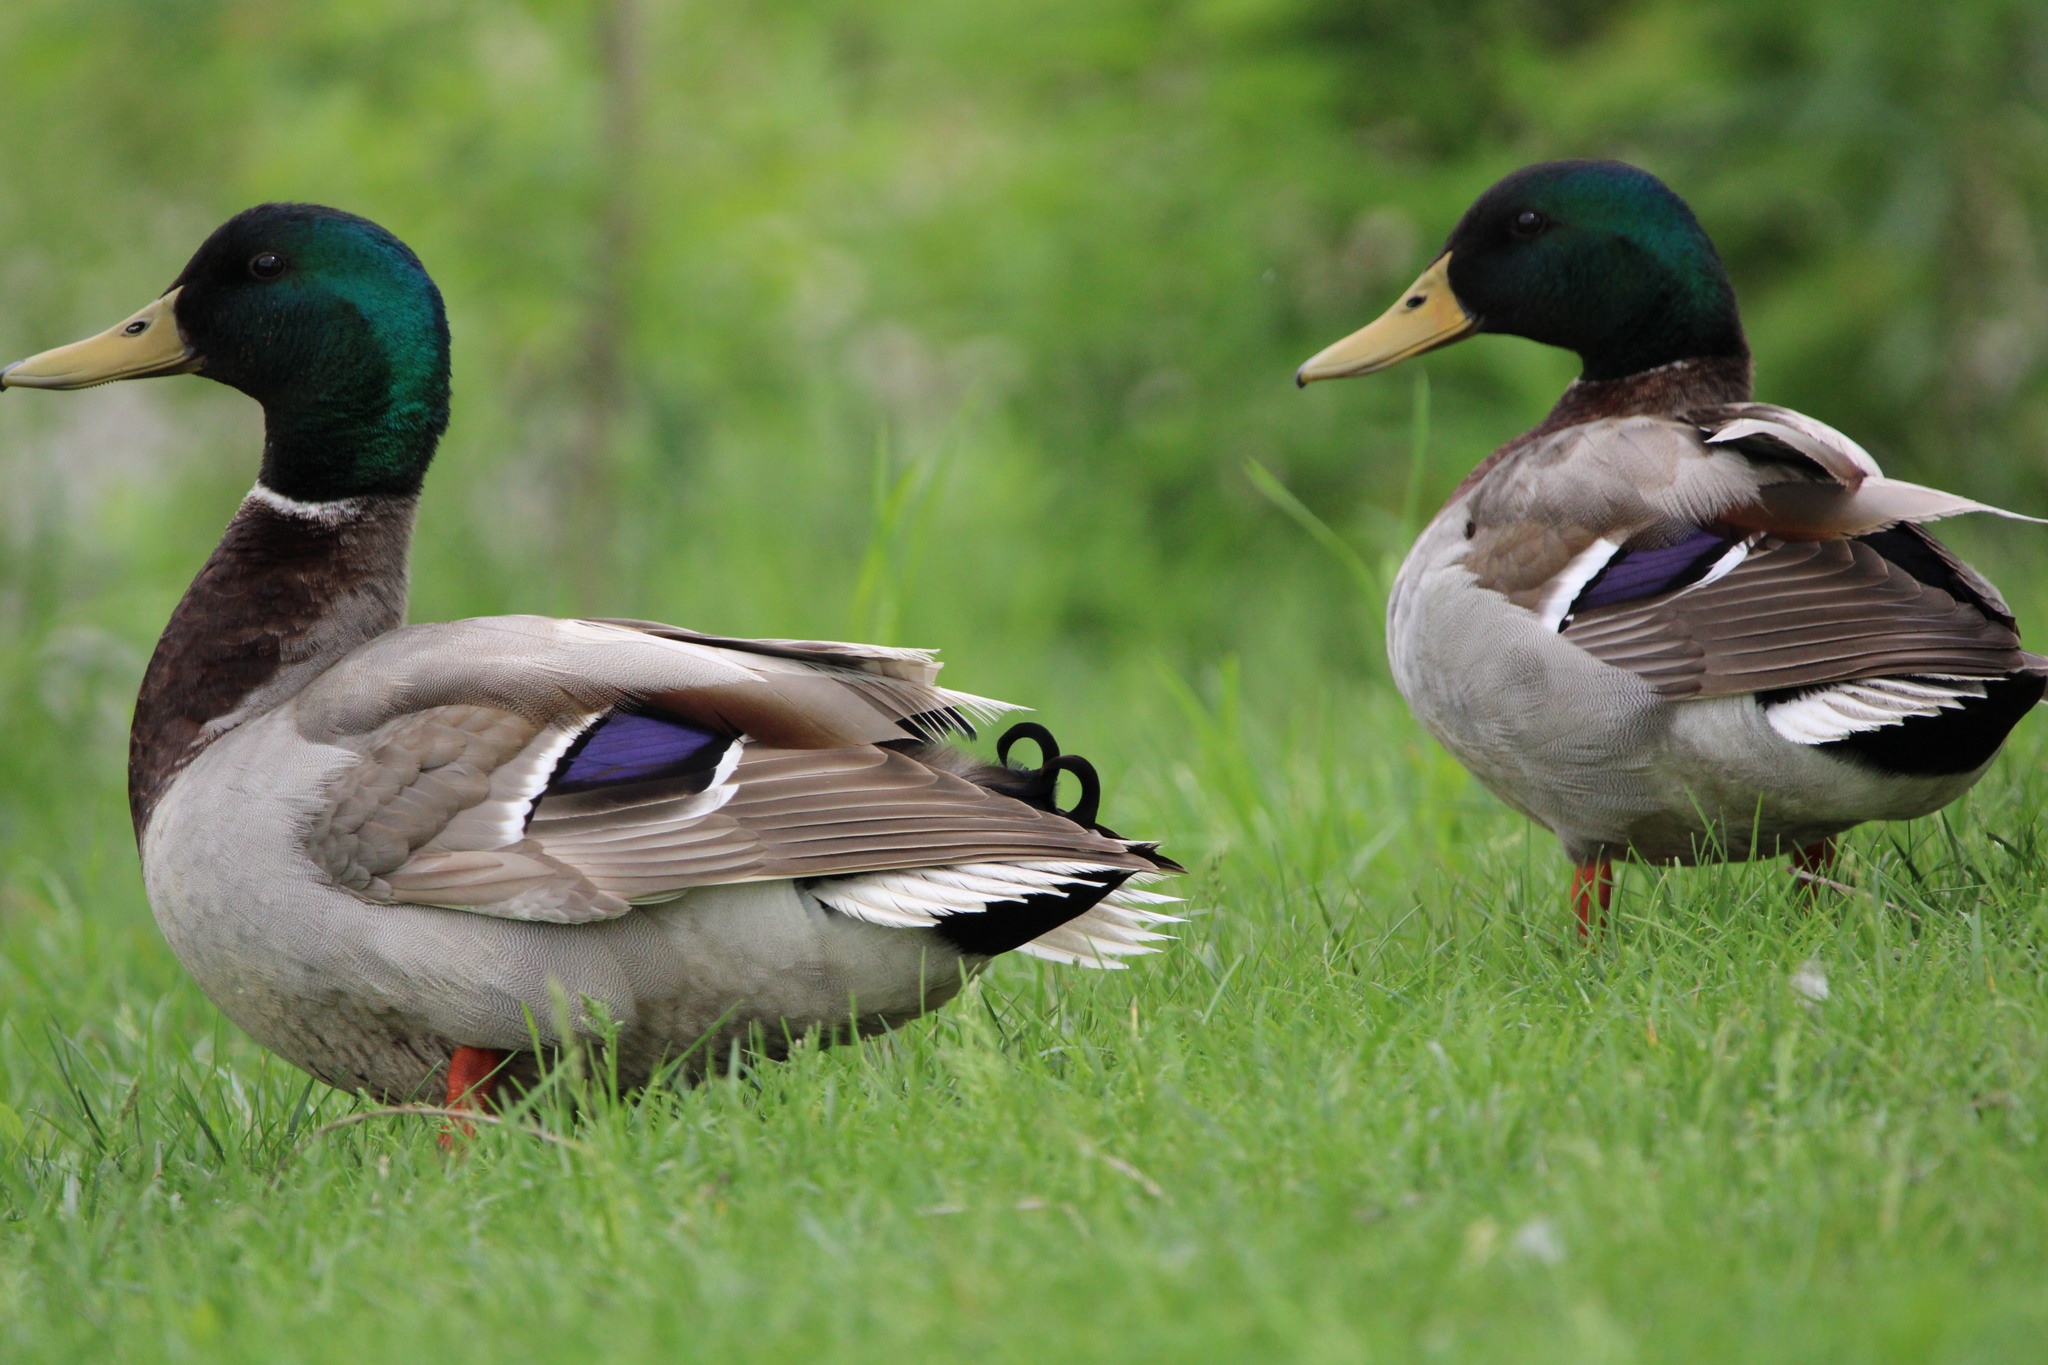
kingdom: Animalia
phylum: Chordata
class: Aves
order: Anseriformes
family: Anatidae
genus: Anas
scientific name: Anas platyrhynchos
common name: Mallard
